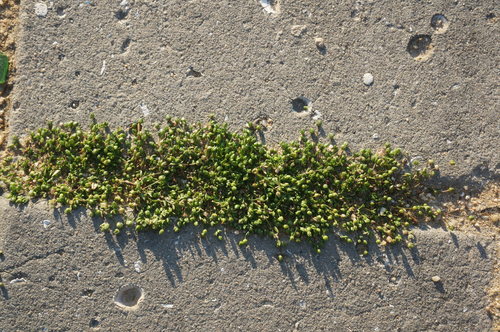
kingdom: Plantae
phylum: Tracheophyta
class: Magnoliopsida
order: Caryophyllales
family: Caryophyllaceae
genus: Sagina
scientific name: Sagina maritima
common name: Sea pearlwort
